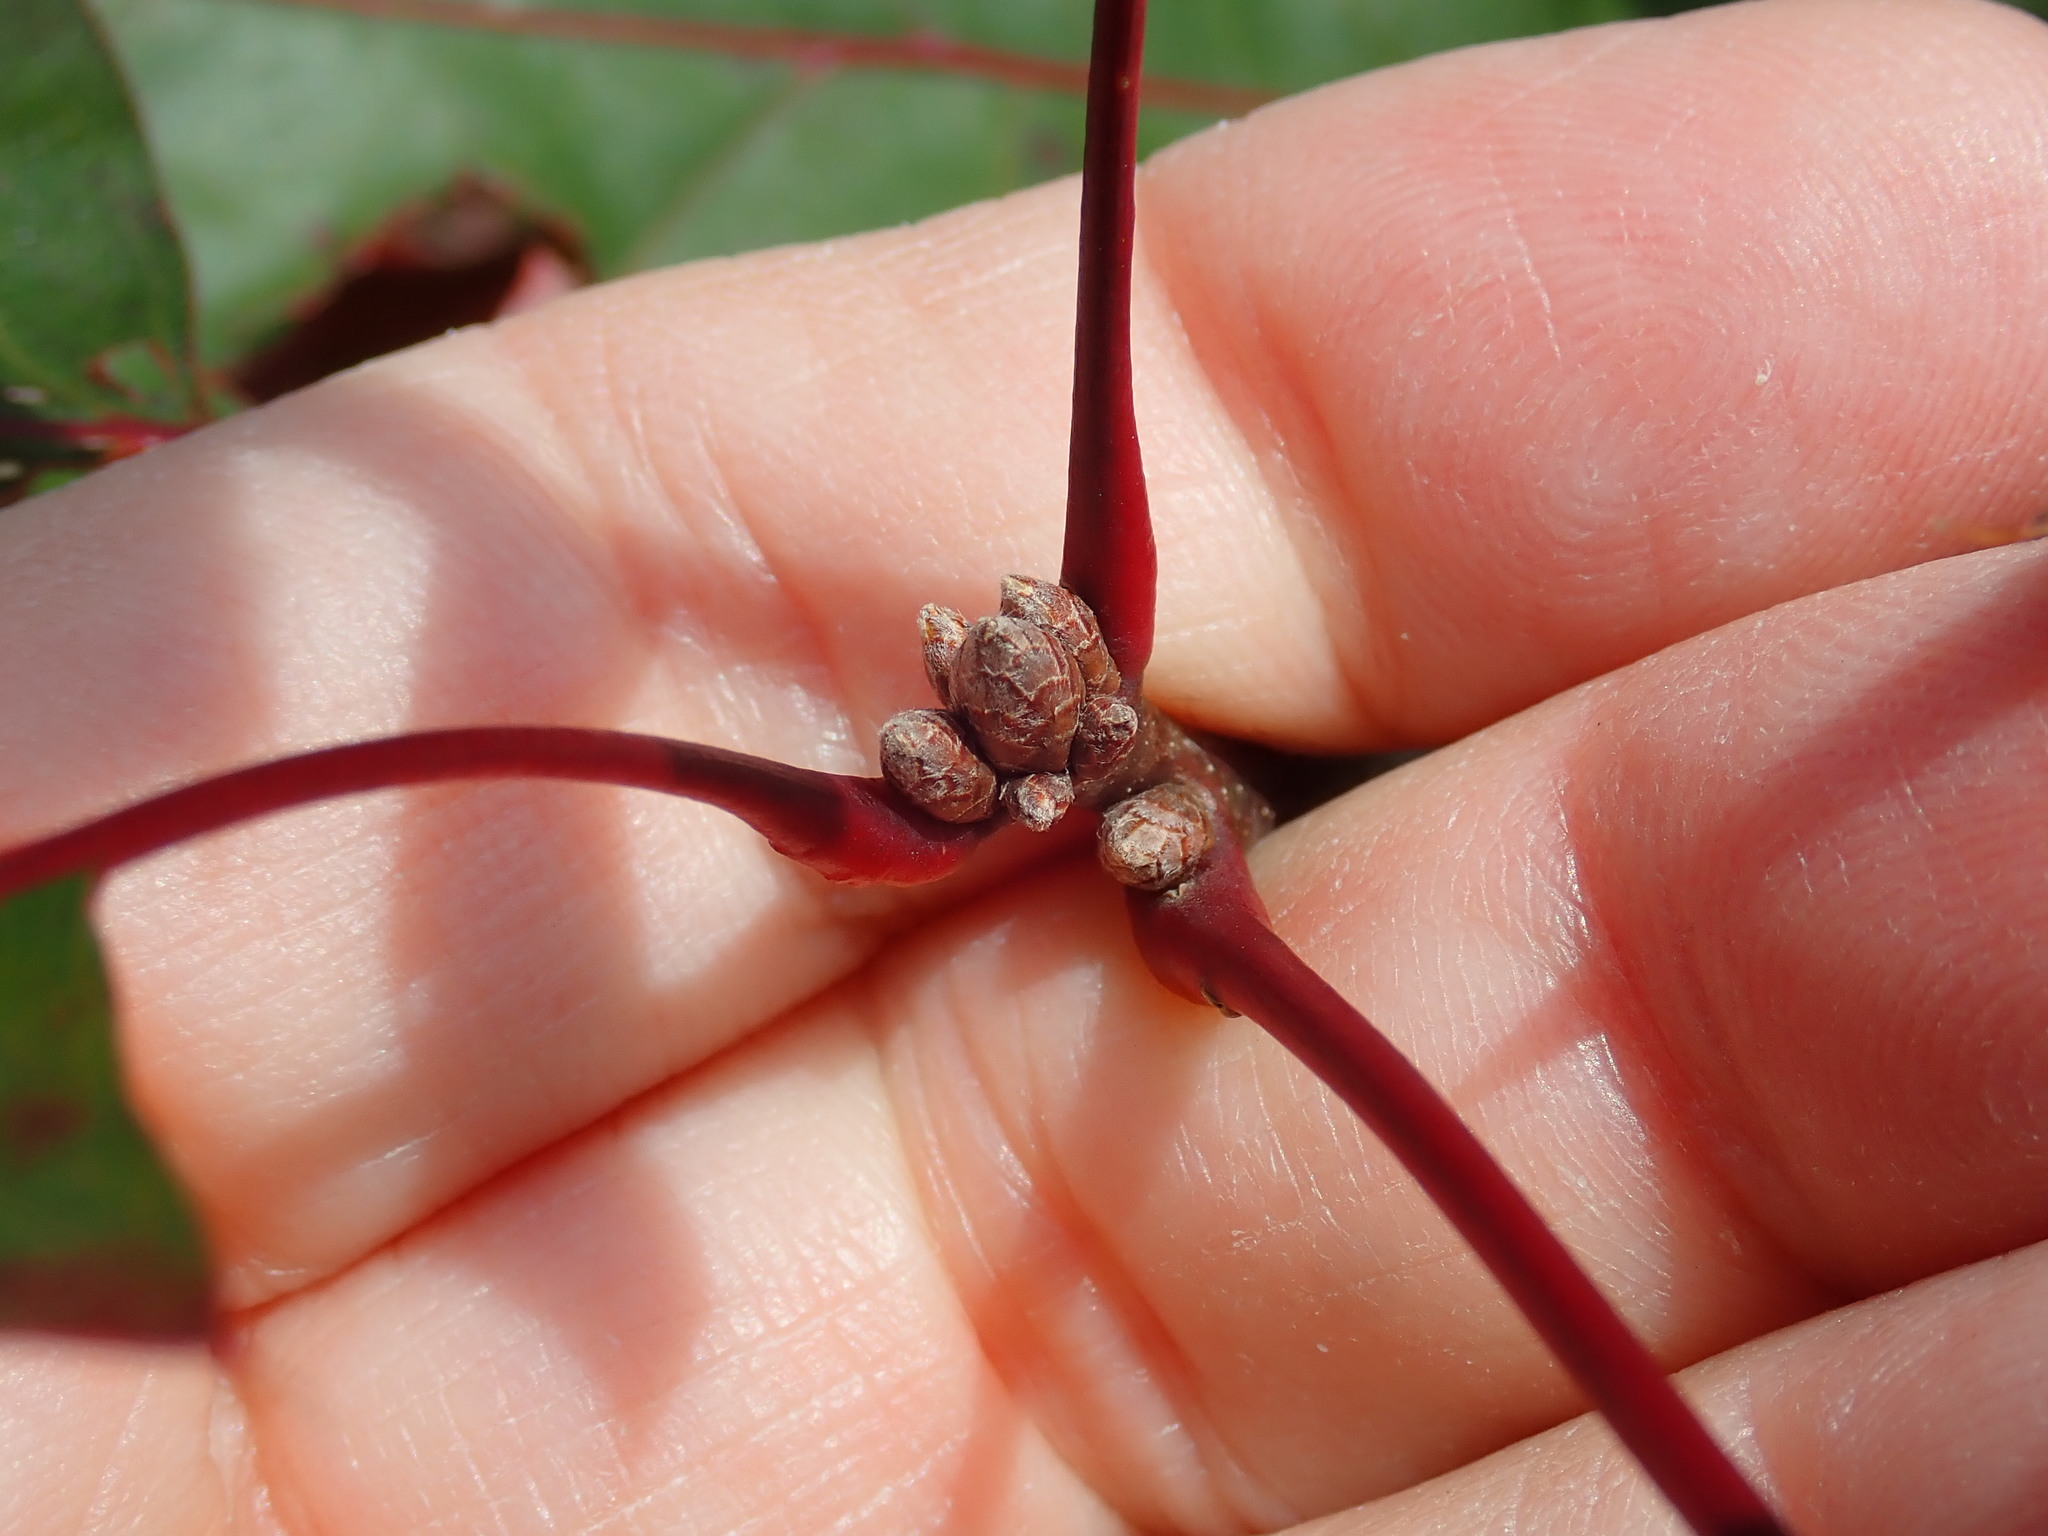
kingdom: Plantae
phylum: Tracheophyta
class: Magnoliopsida
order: Fagales
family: Fagaceae
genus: Quercus
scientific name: Quercus velutina
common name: Black oak
